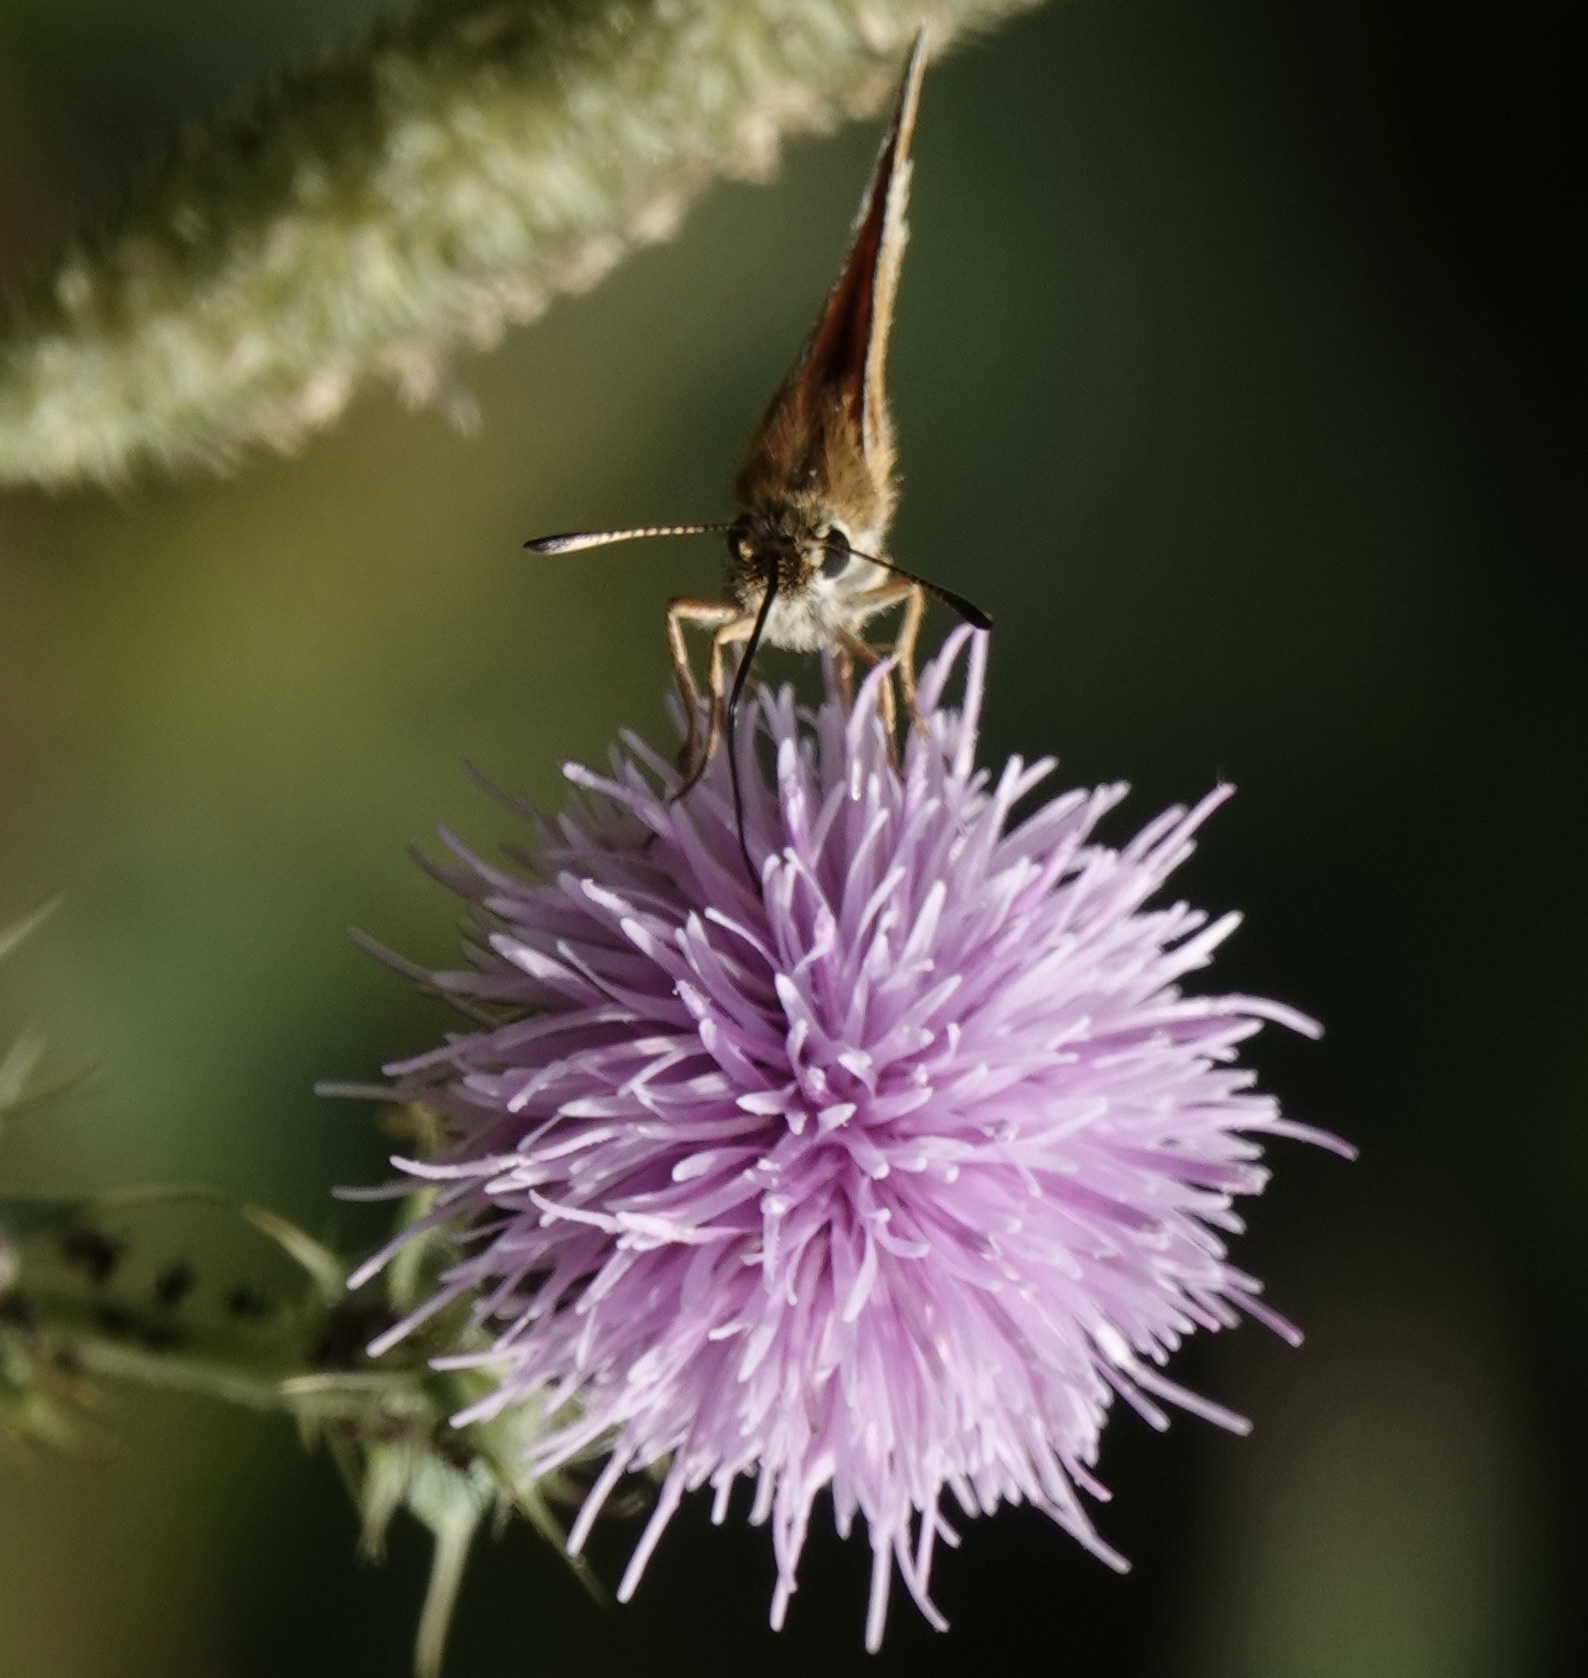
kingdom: Animalia
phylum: Arthropoda
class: Insecta
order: Lepidoptera
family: Hesperiidae
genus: Thymelicus
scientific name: Thymelicus lineola
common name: Essex skipper
